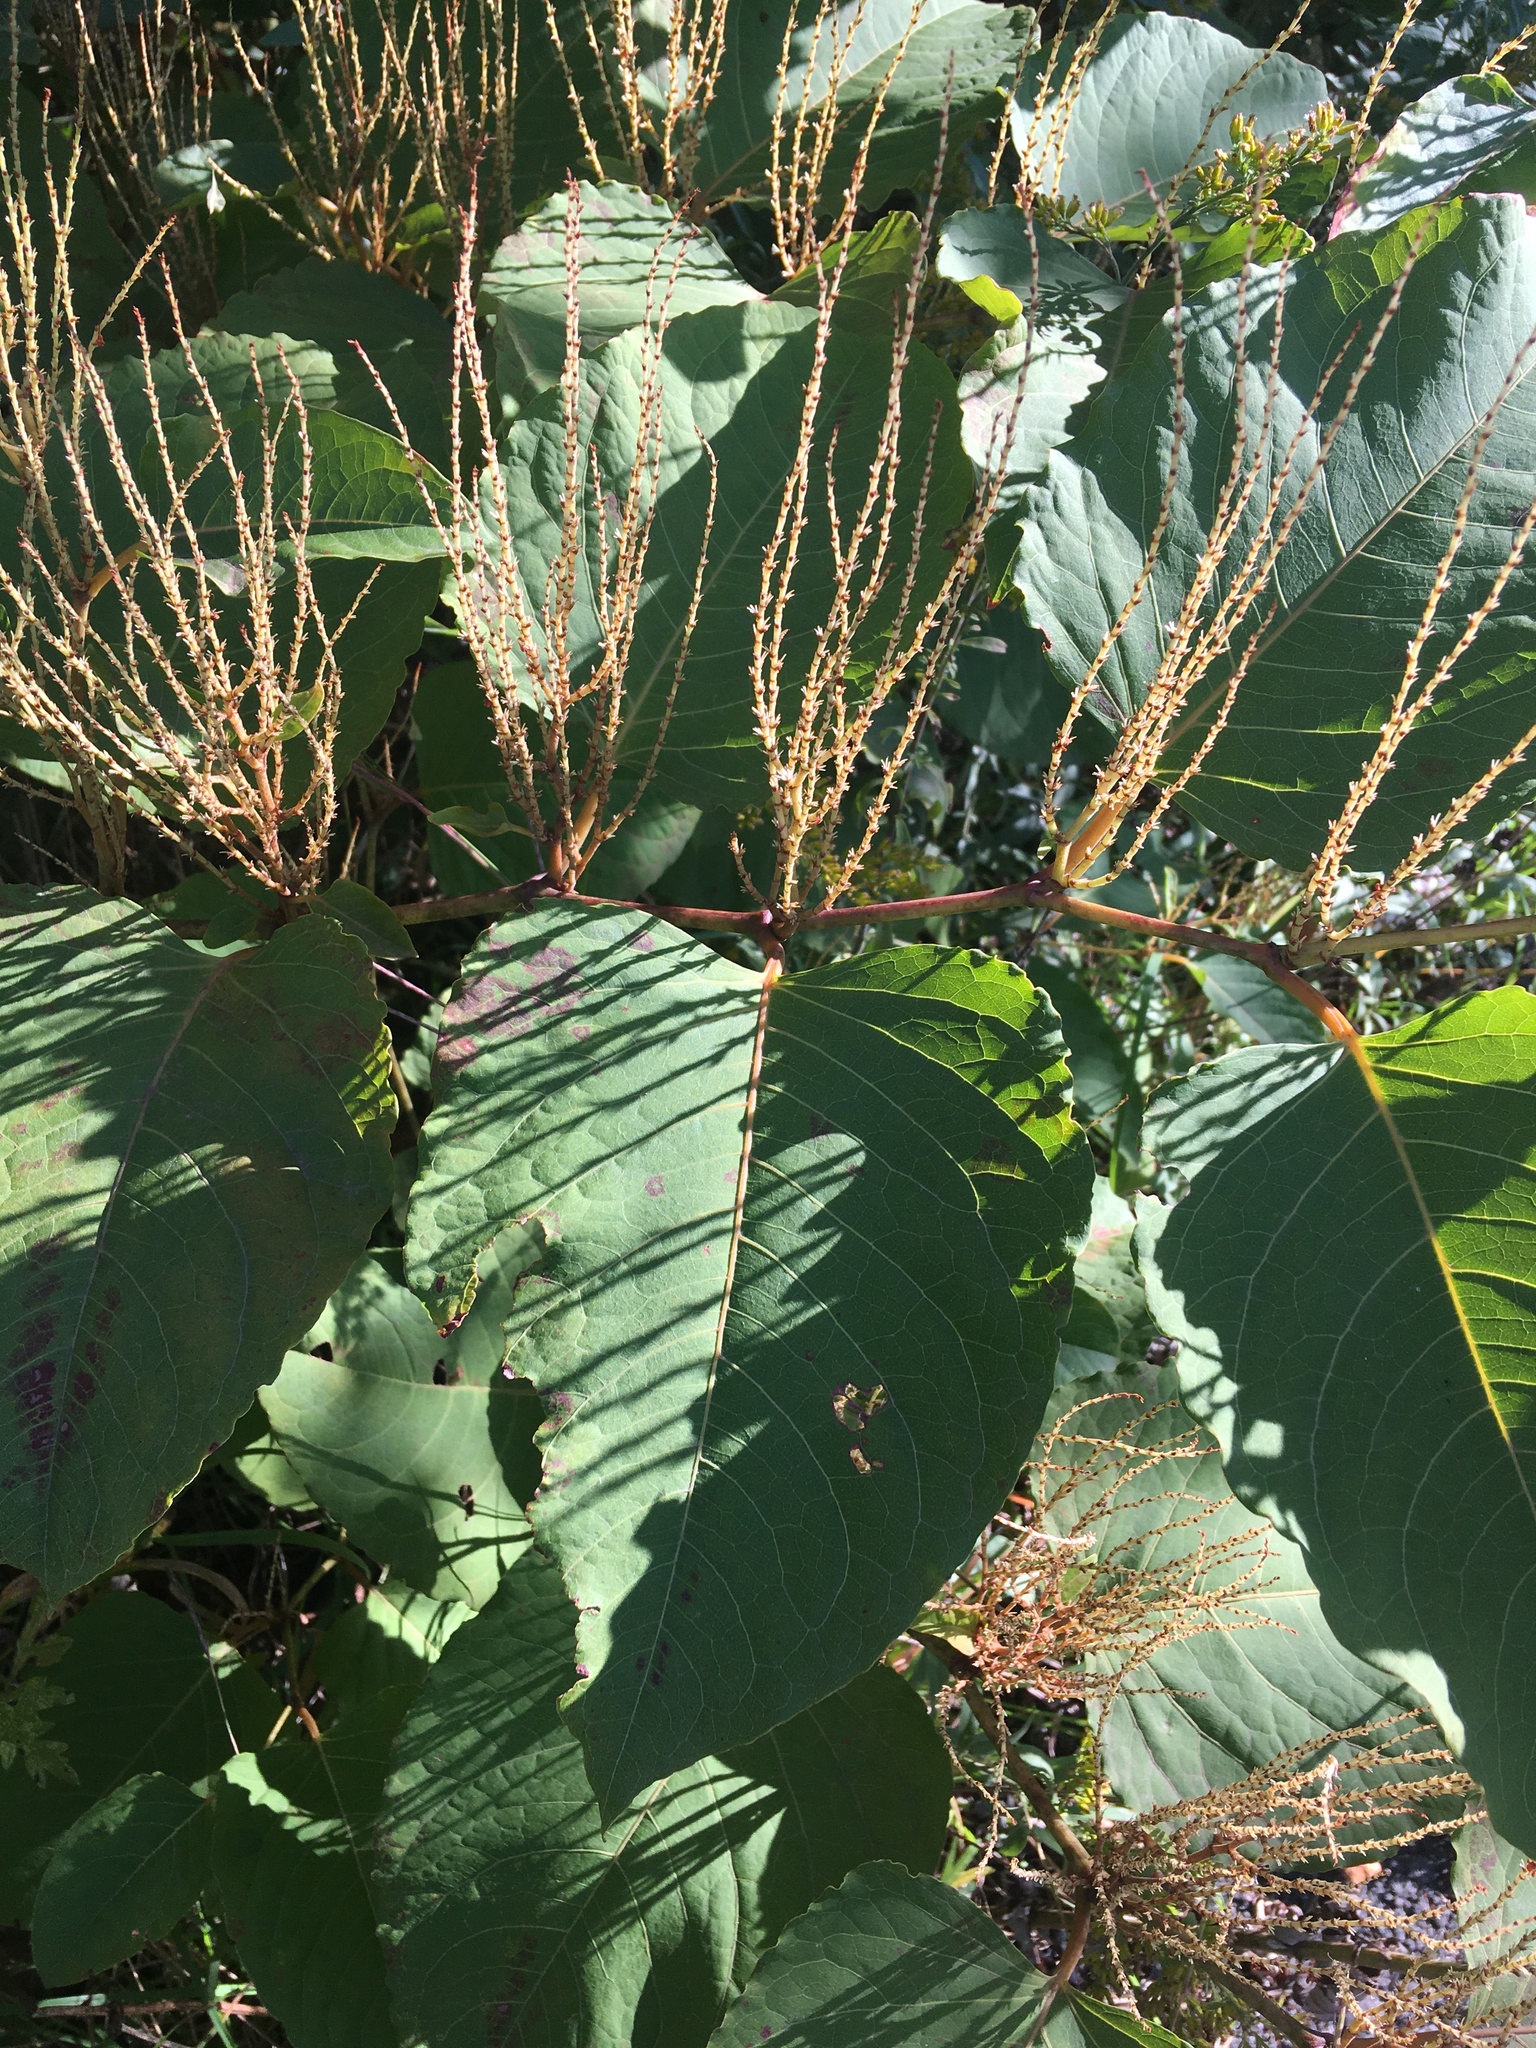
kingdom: Plantae
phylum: Tracheophyta
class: Magnoliopsida
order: Caryophyllales
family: Polygonaceae
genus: Reynoutria
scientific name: Reynoutria bohemica
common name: Bohemian knotweed
